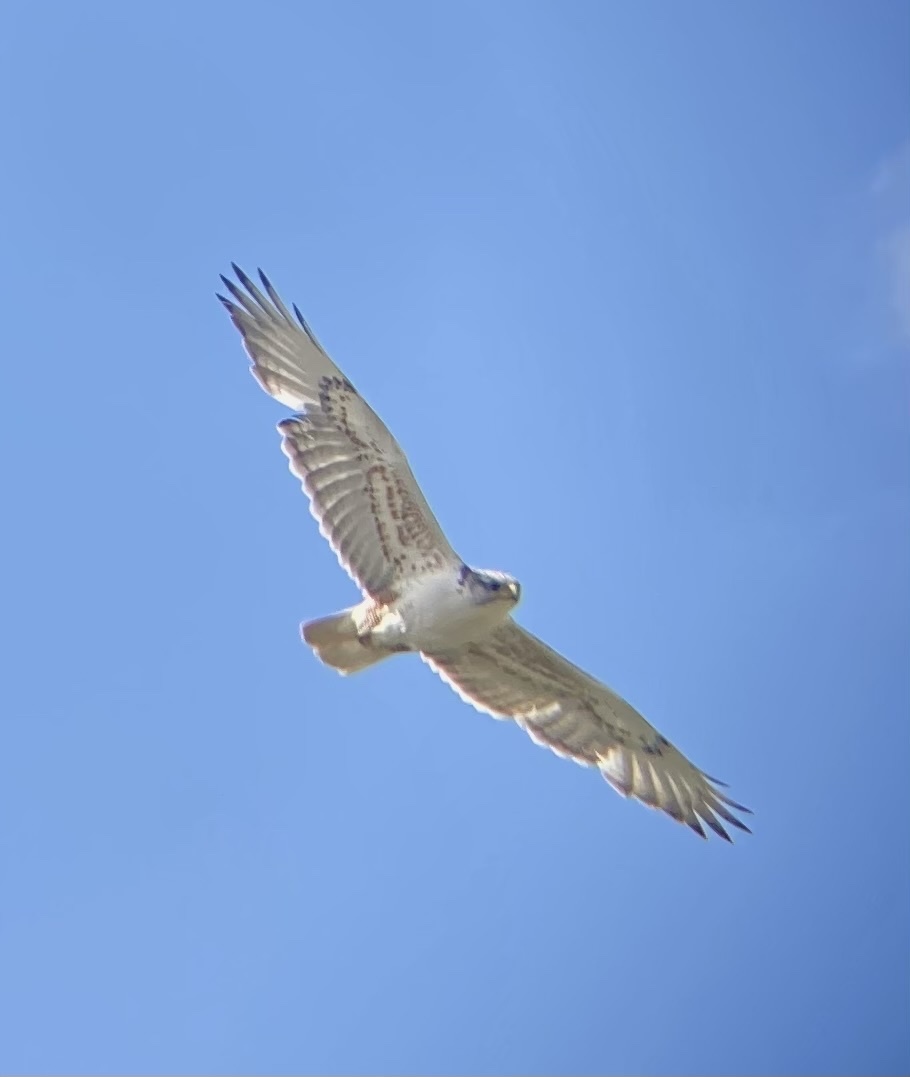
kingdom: Animalia
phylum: Chordata
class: Aves
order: Accipitriformes
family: Accipitridae
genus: Buteo
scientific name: Buteo regalis
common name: Ferruginous hawk
